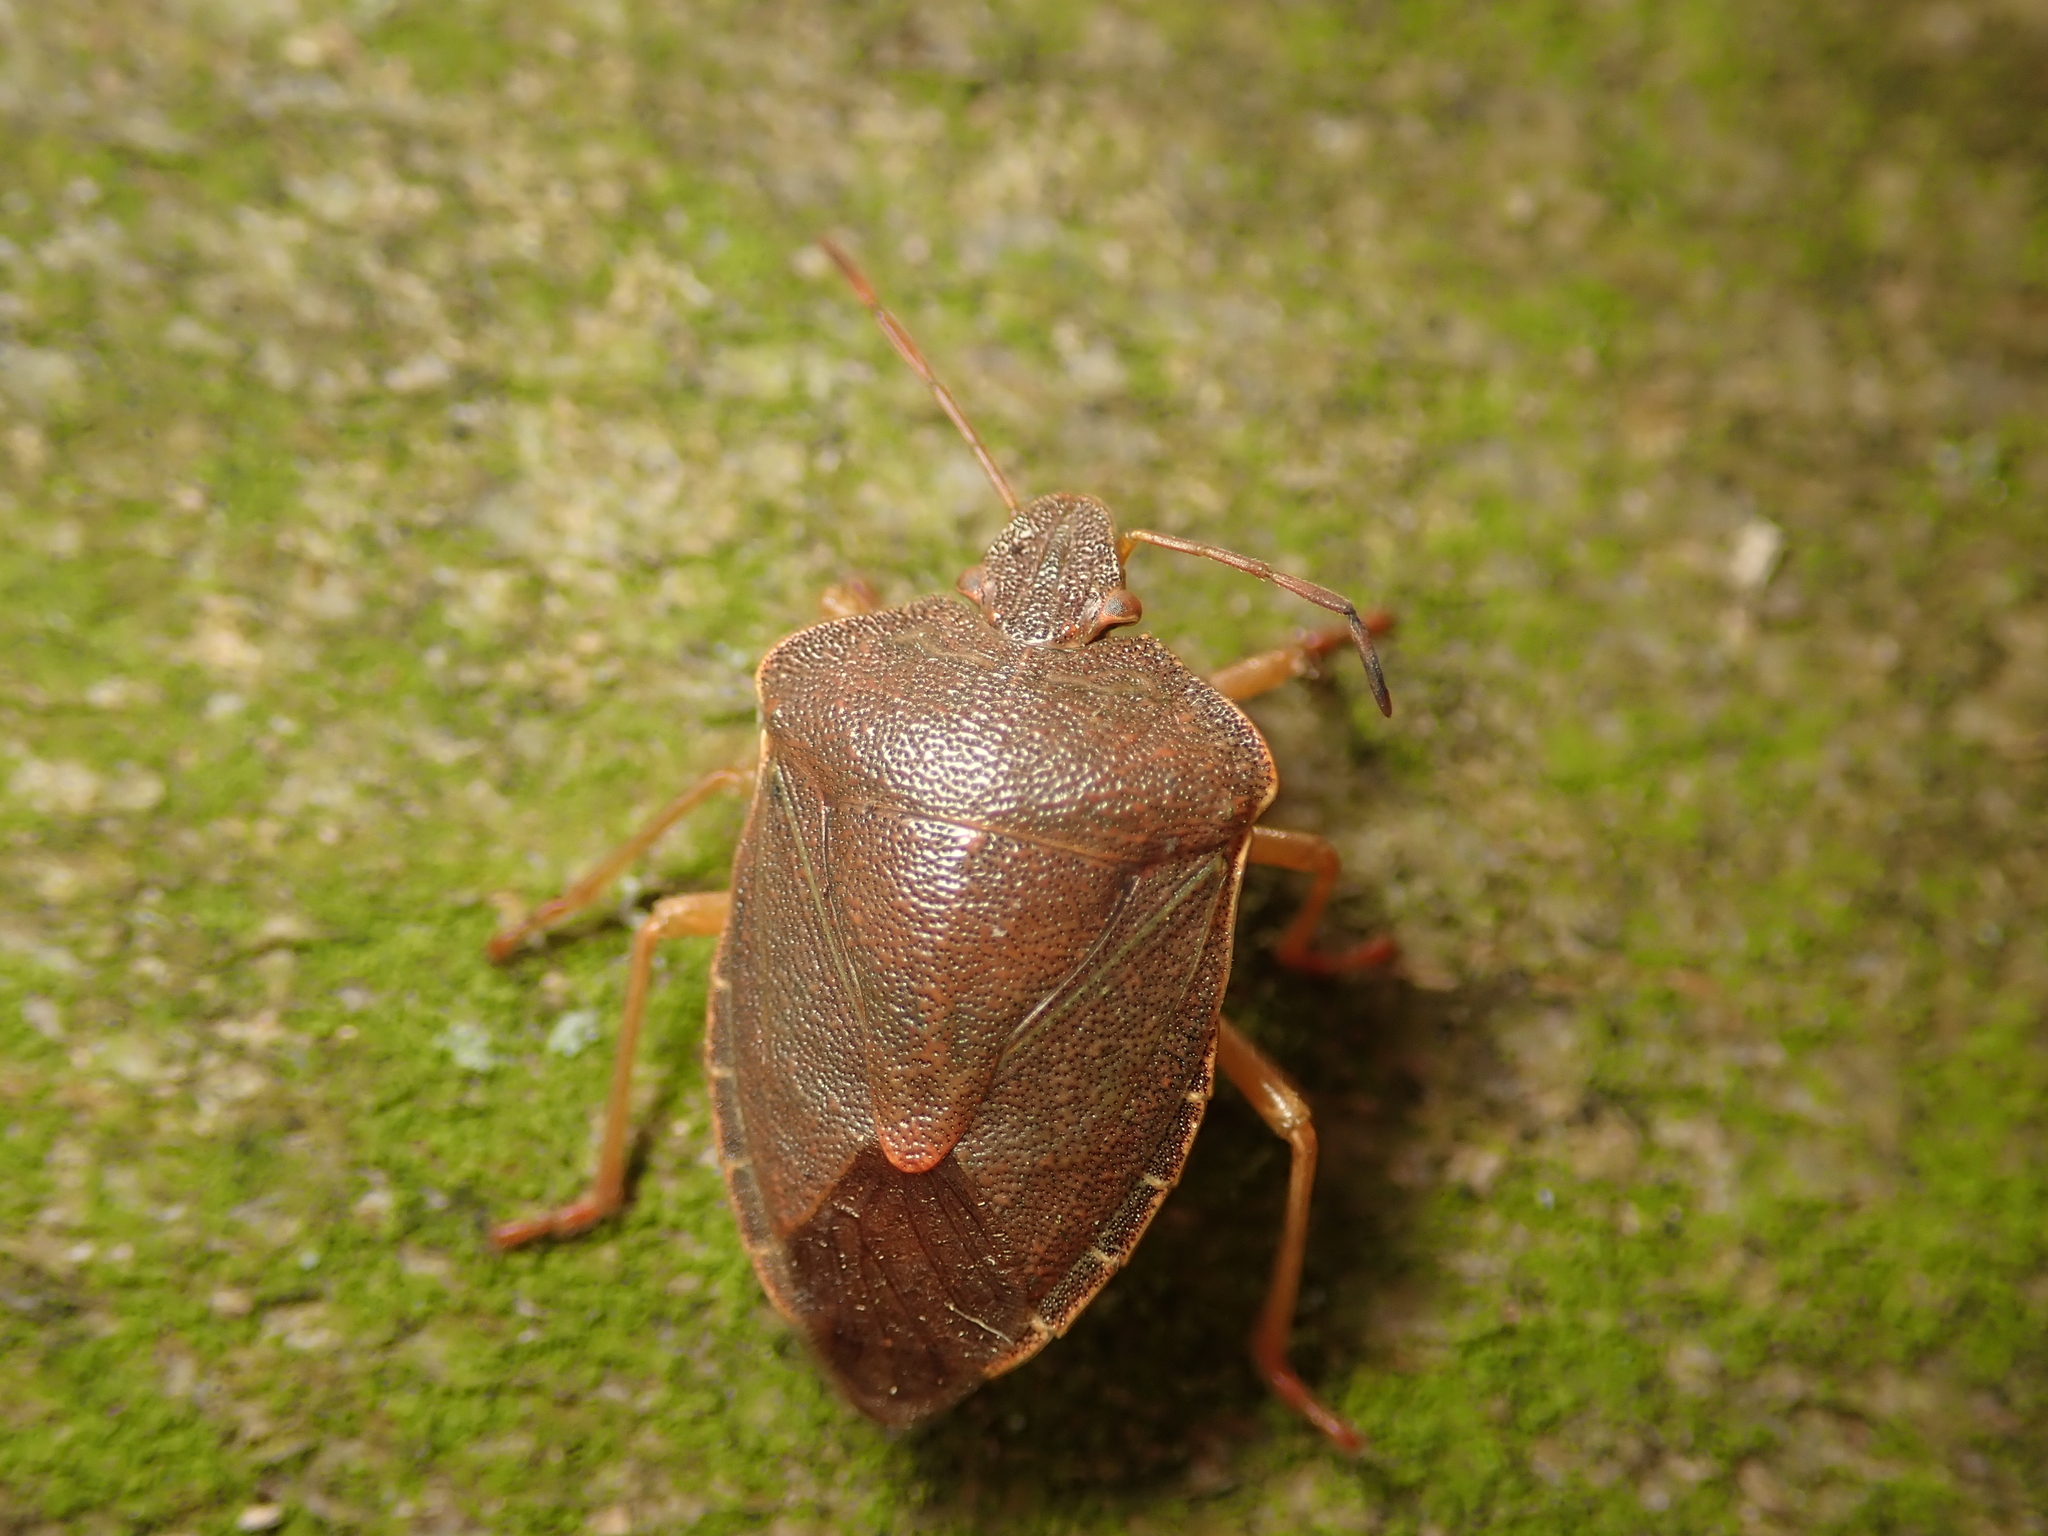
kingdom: Animalia
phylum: Arthropoda
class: Insecta
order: Hemiptera
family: Pentatomidae
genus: Palomena
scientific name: Palomena prasina
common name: Green shieldbug
